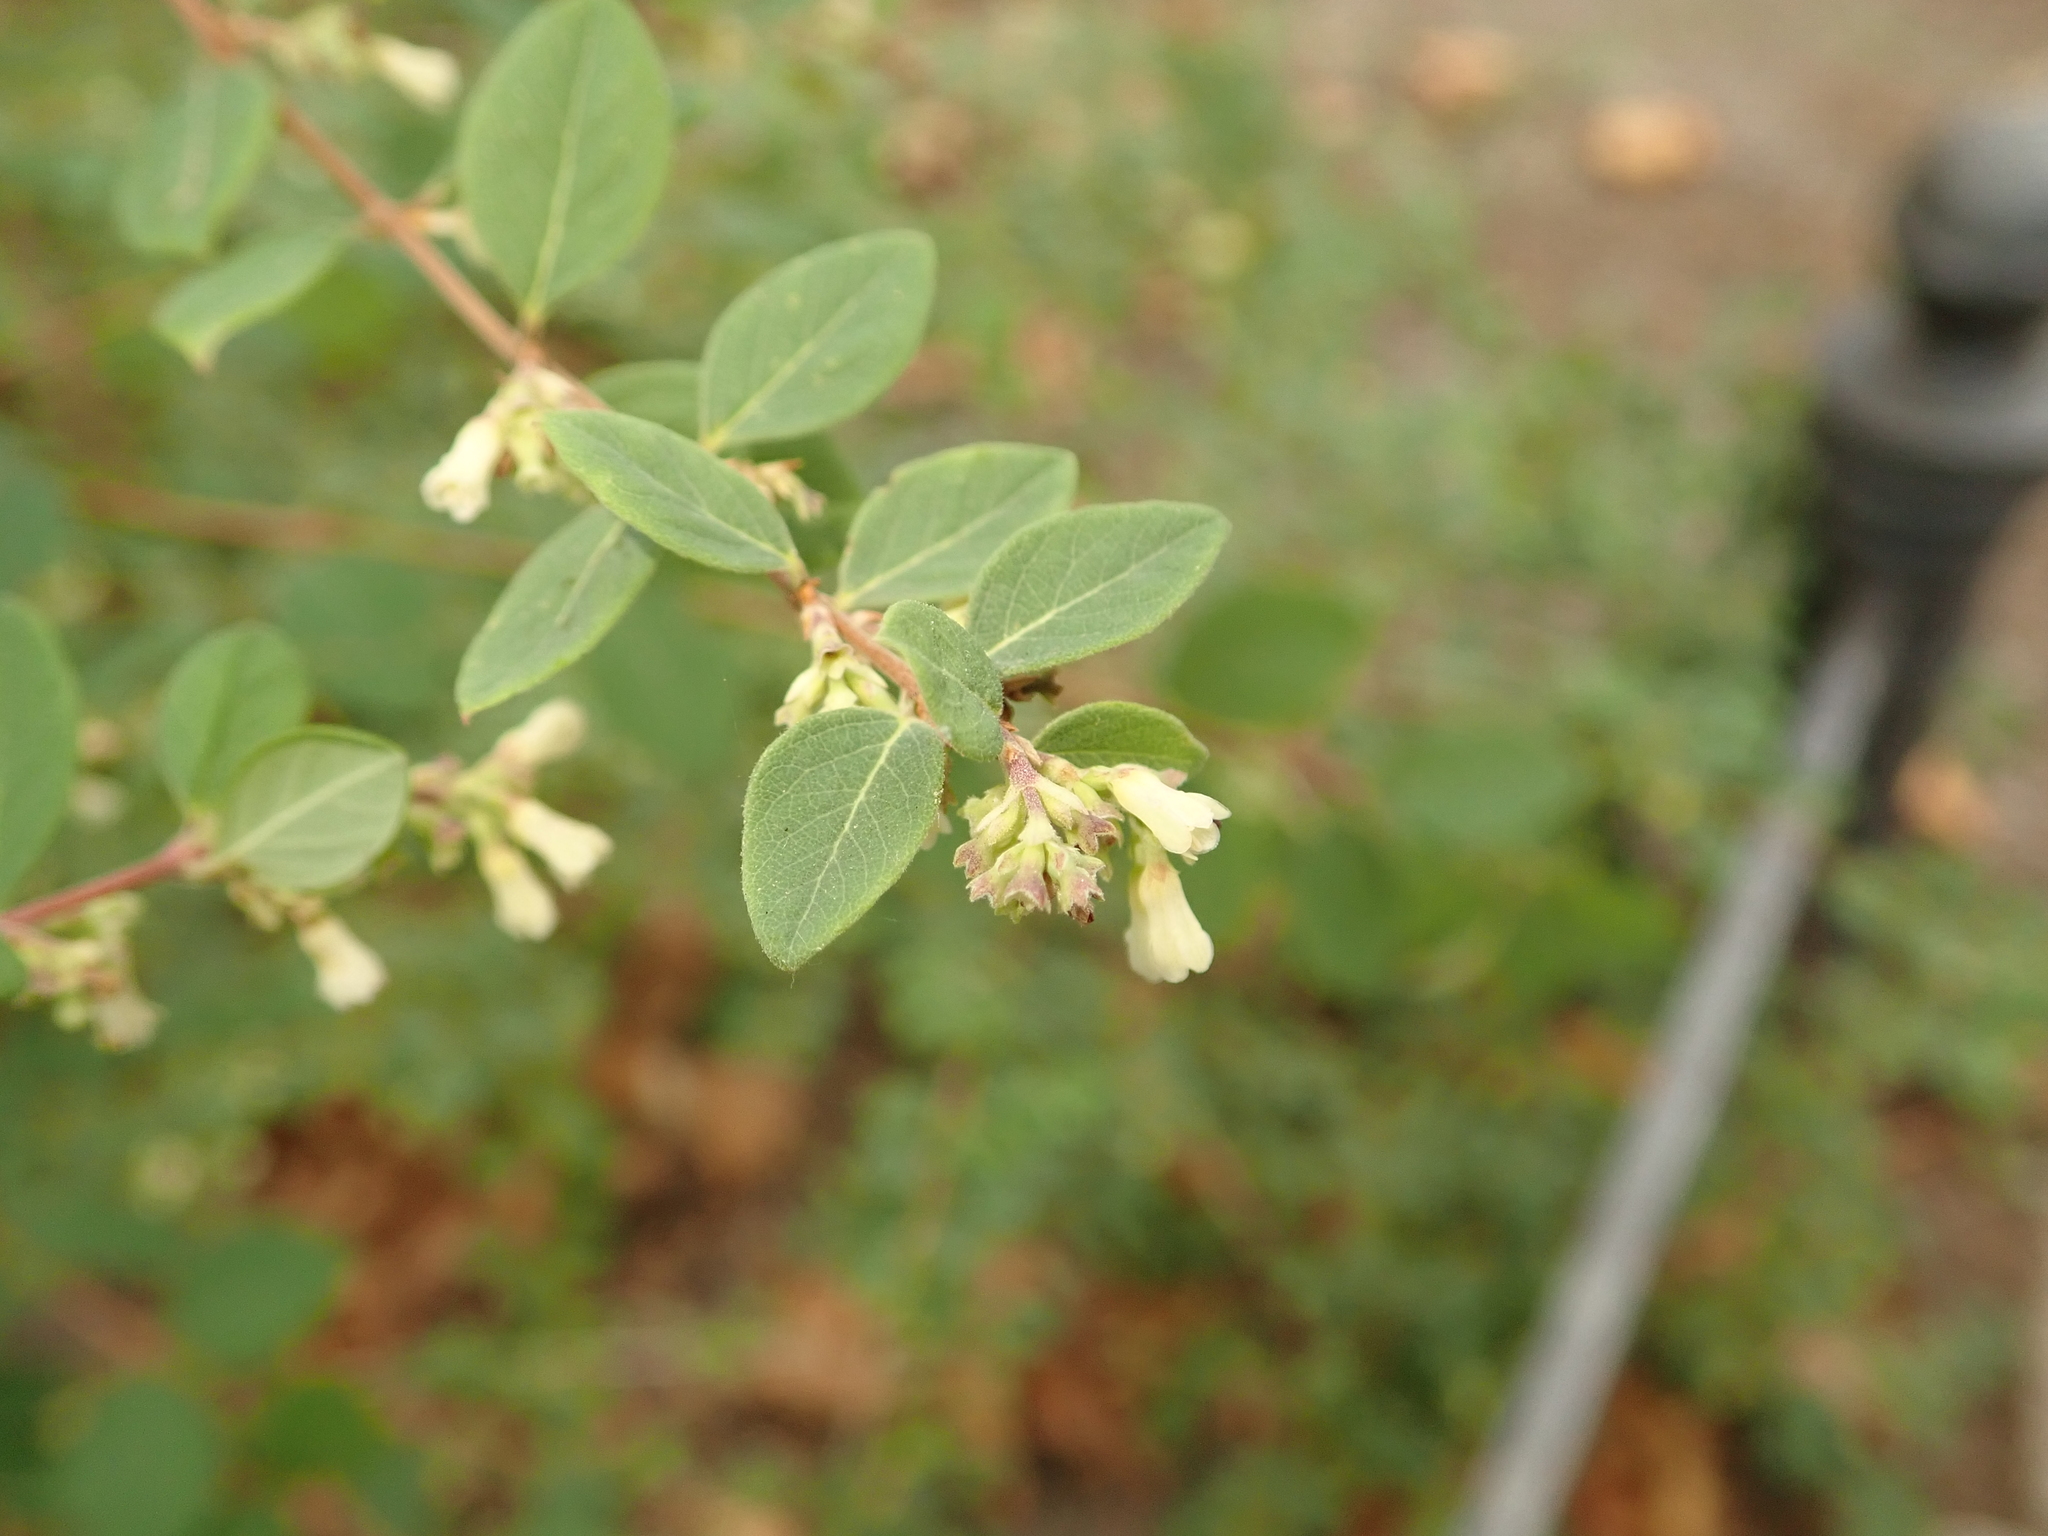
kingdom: Plantae
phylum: Tracheophyta
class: Magnoliopsida
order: Dipsacales
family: Caprifoliaceae
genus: Symphoricarpos
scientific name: Symphoricarpos albus
